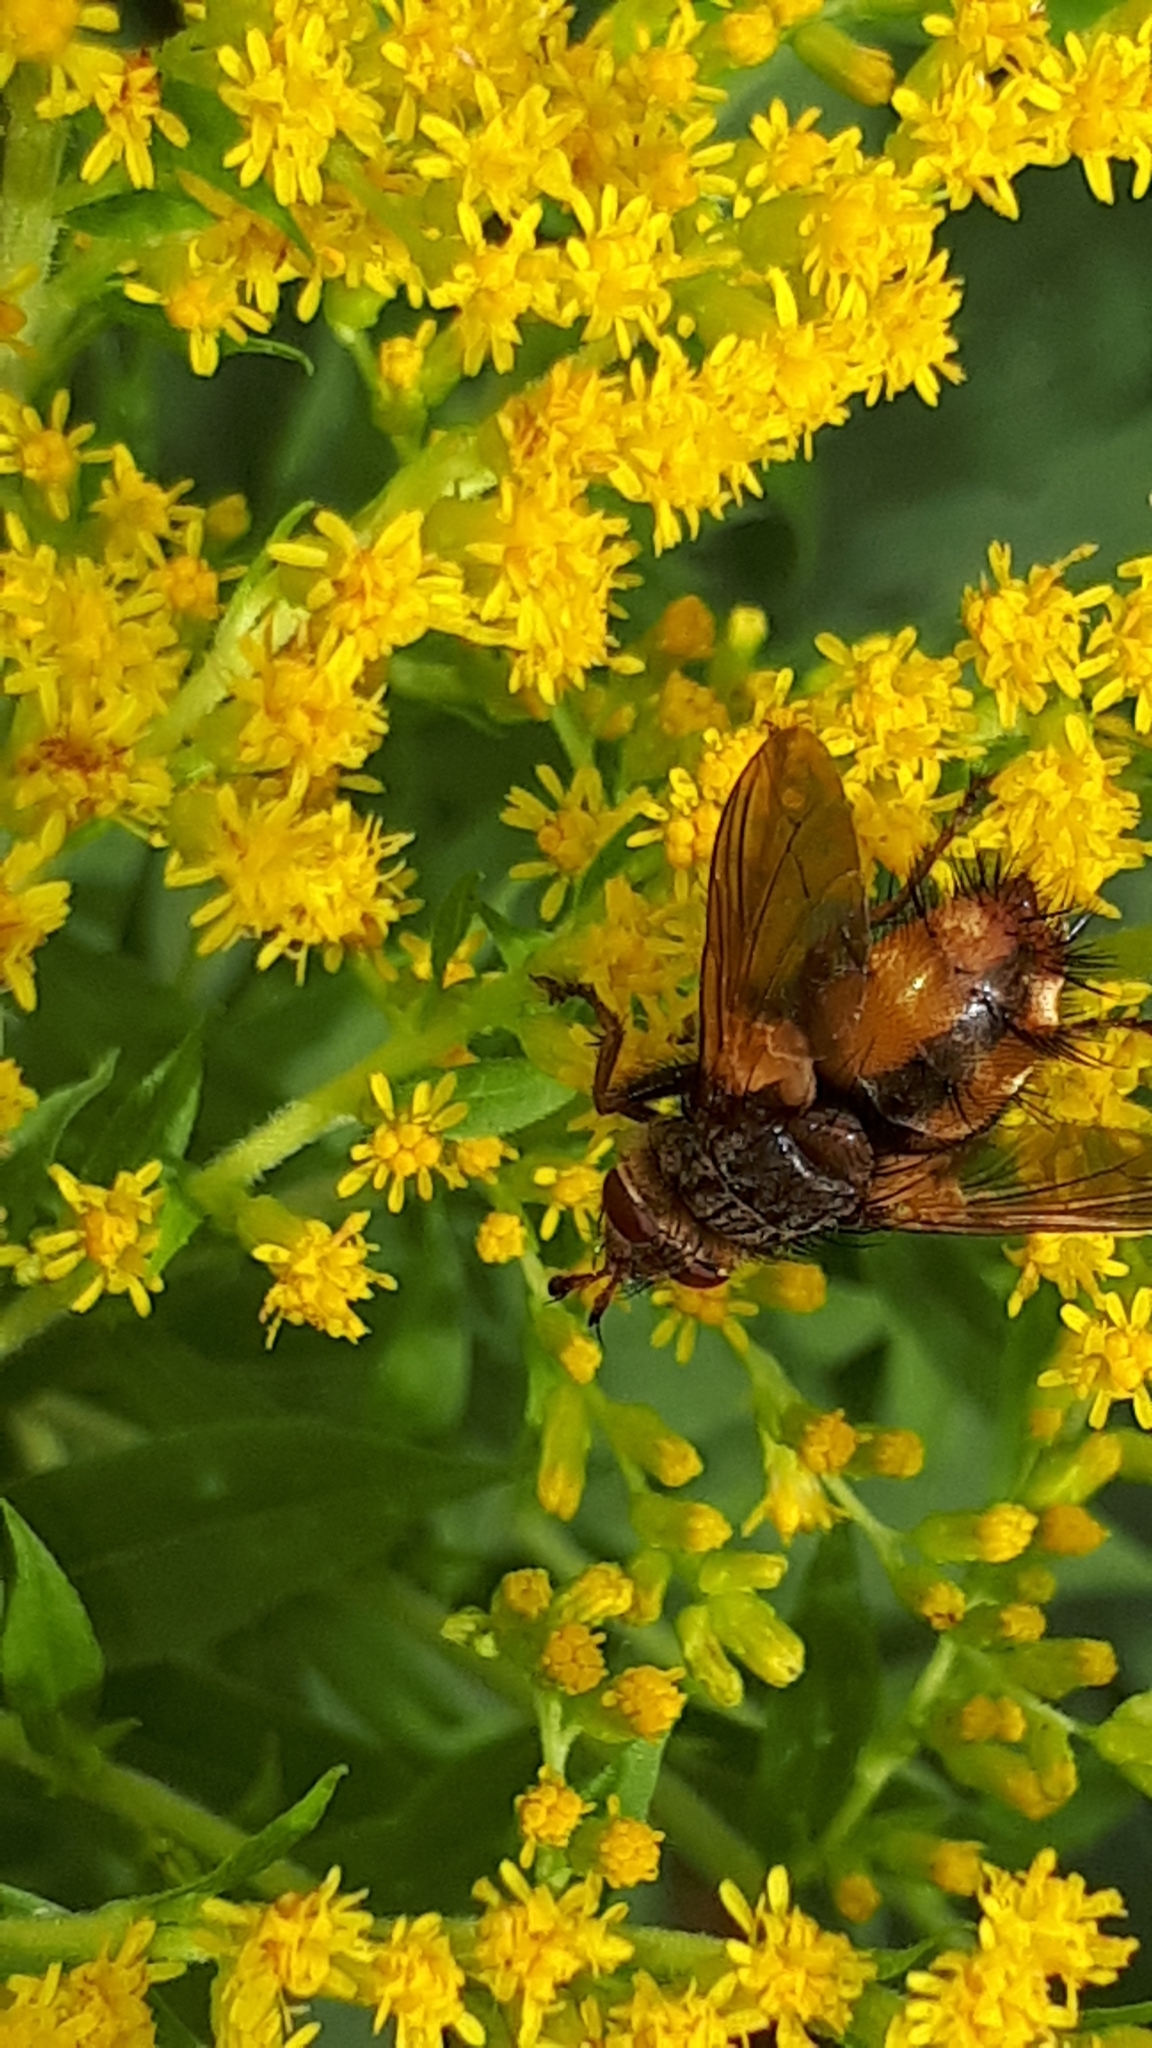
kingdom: Animalia
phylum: Arthropoda
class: Insecta
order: Diptera
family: Tachinidae
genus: Tachina
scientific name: Tachina fera
